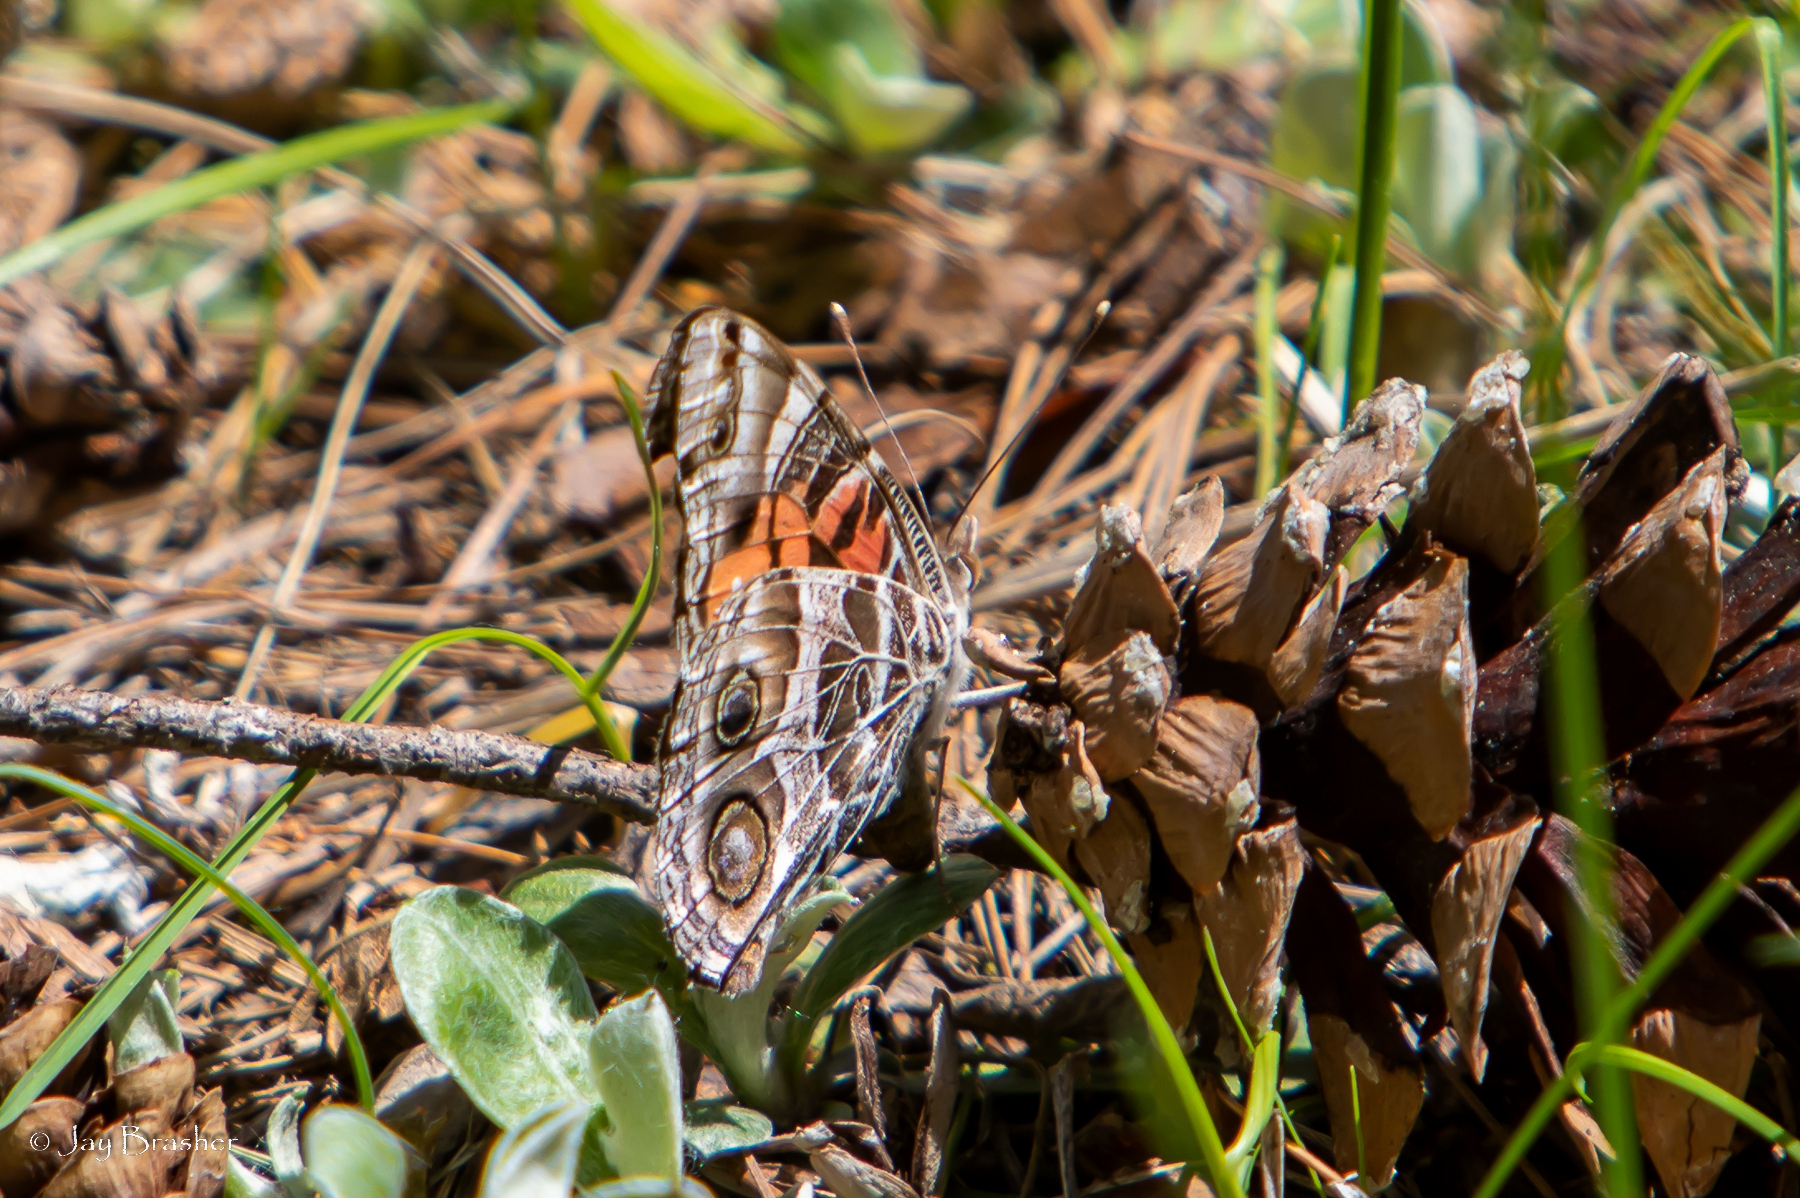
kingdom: Animalia
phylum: Arthropoda
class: Insecta
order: Lepidoptera
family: Nymphalidae
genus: Vanessa
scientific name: Vanessa virginiensis
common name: American lady
